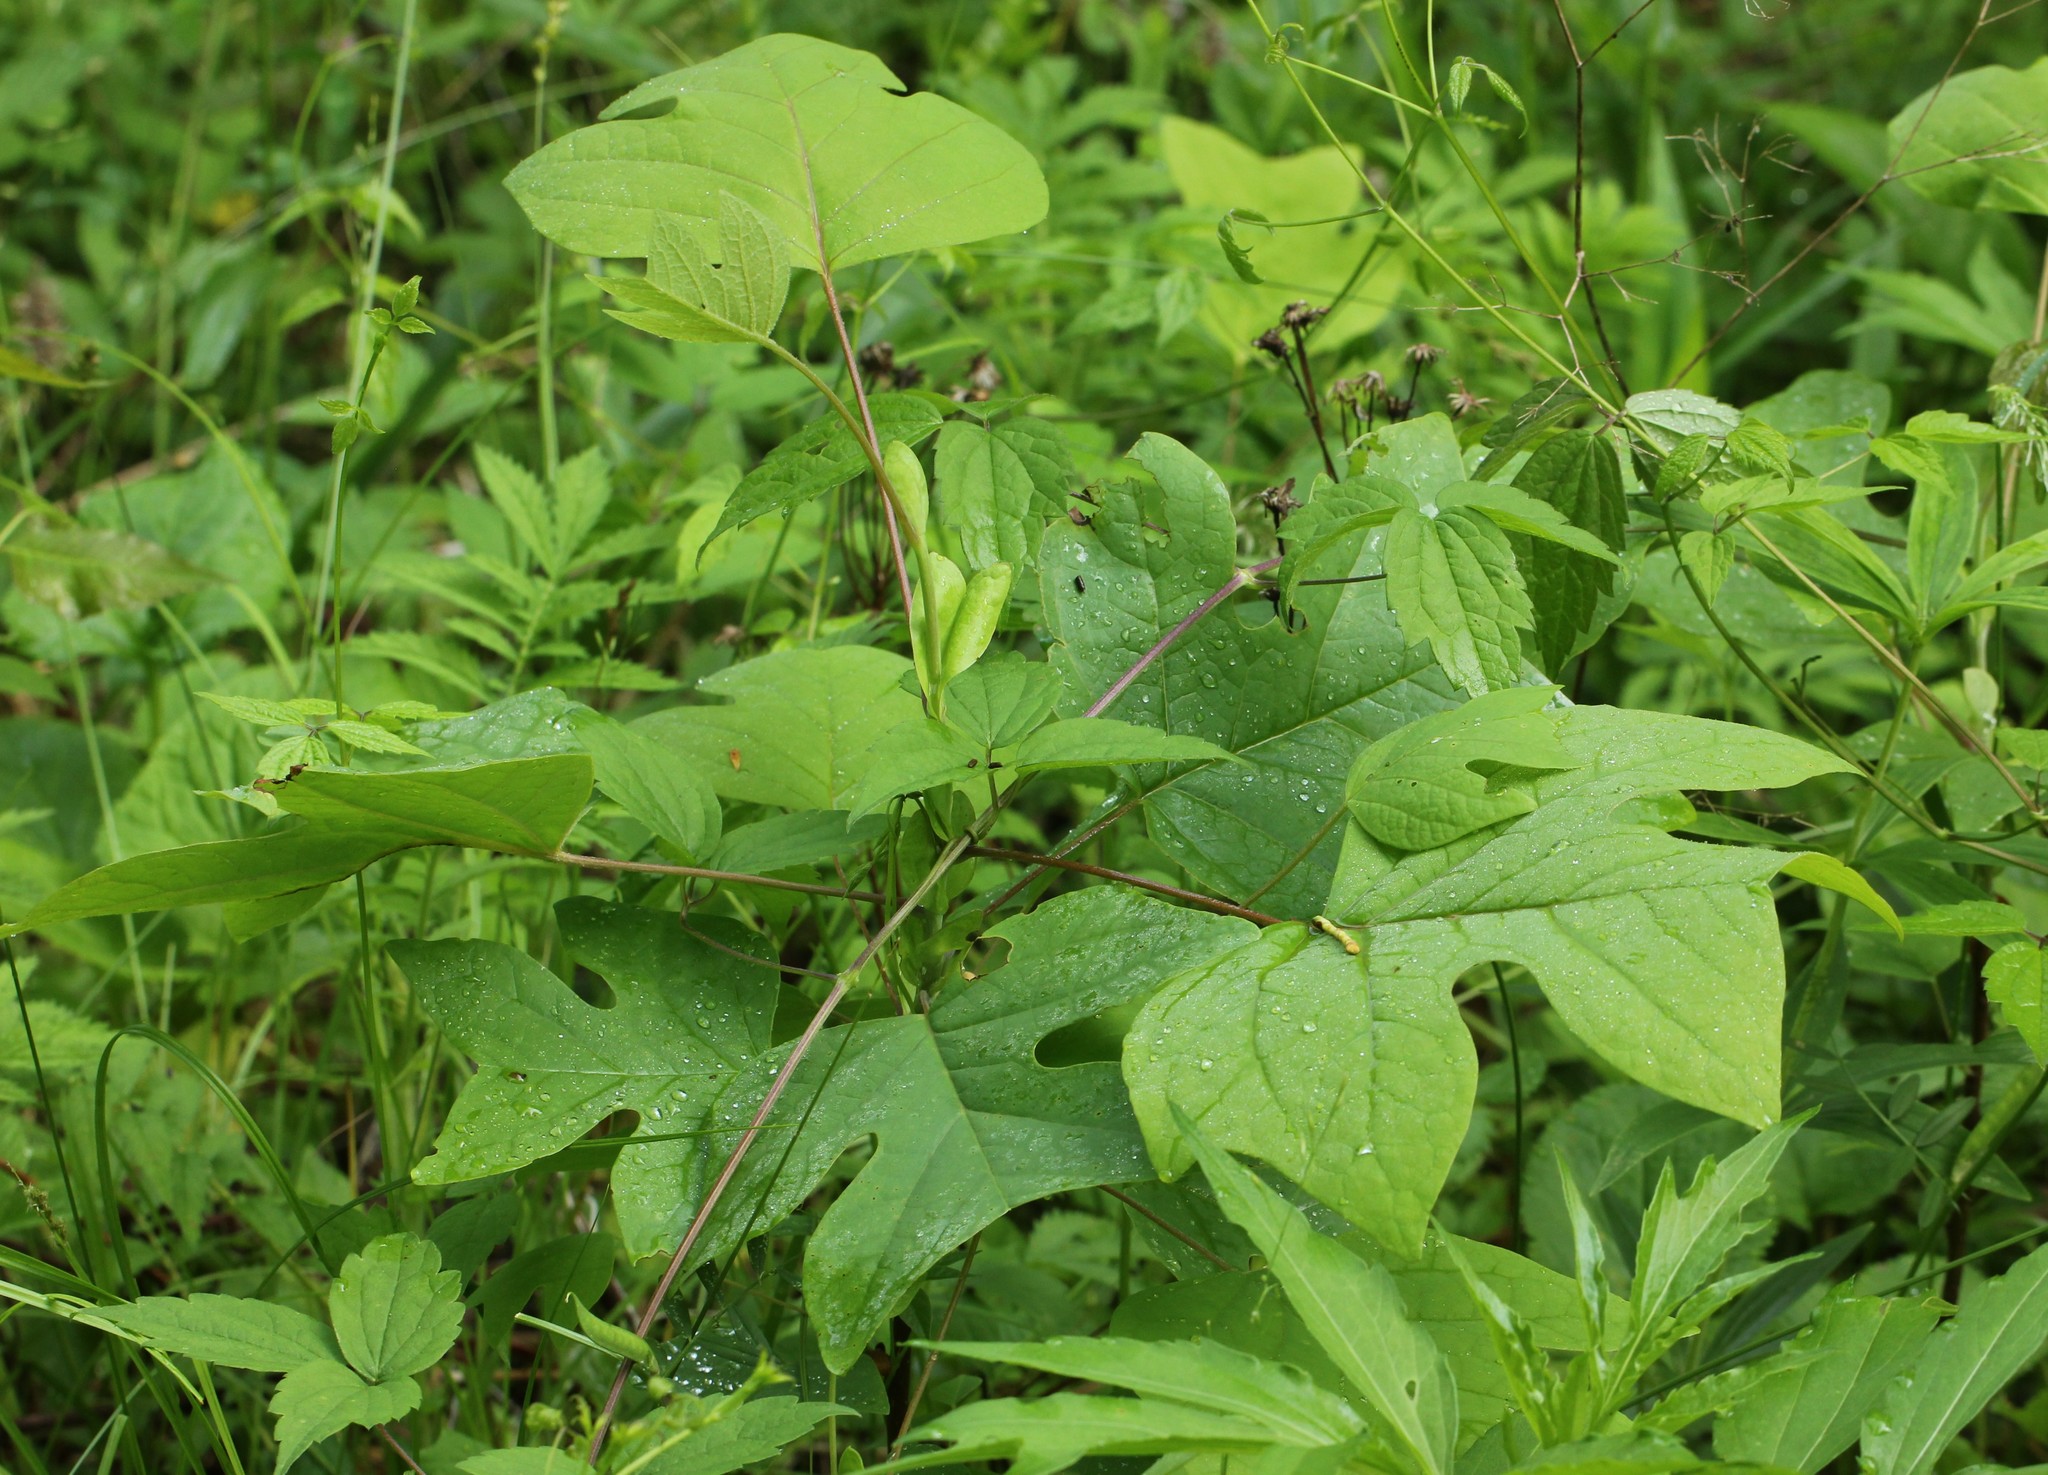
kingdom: Plantae
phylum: Tracheophyta
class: Magnoliopsida
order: Magnoliales
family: Magnoliaceae
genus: Liriodendron
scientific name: Liriodendron tulipifera
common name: Tulip tree
